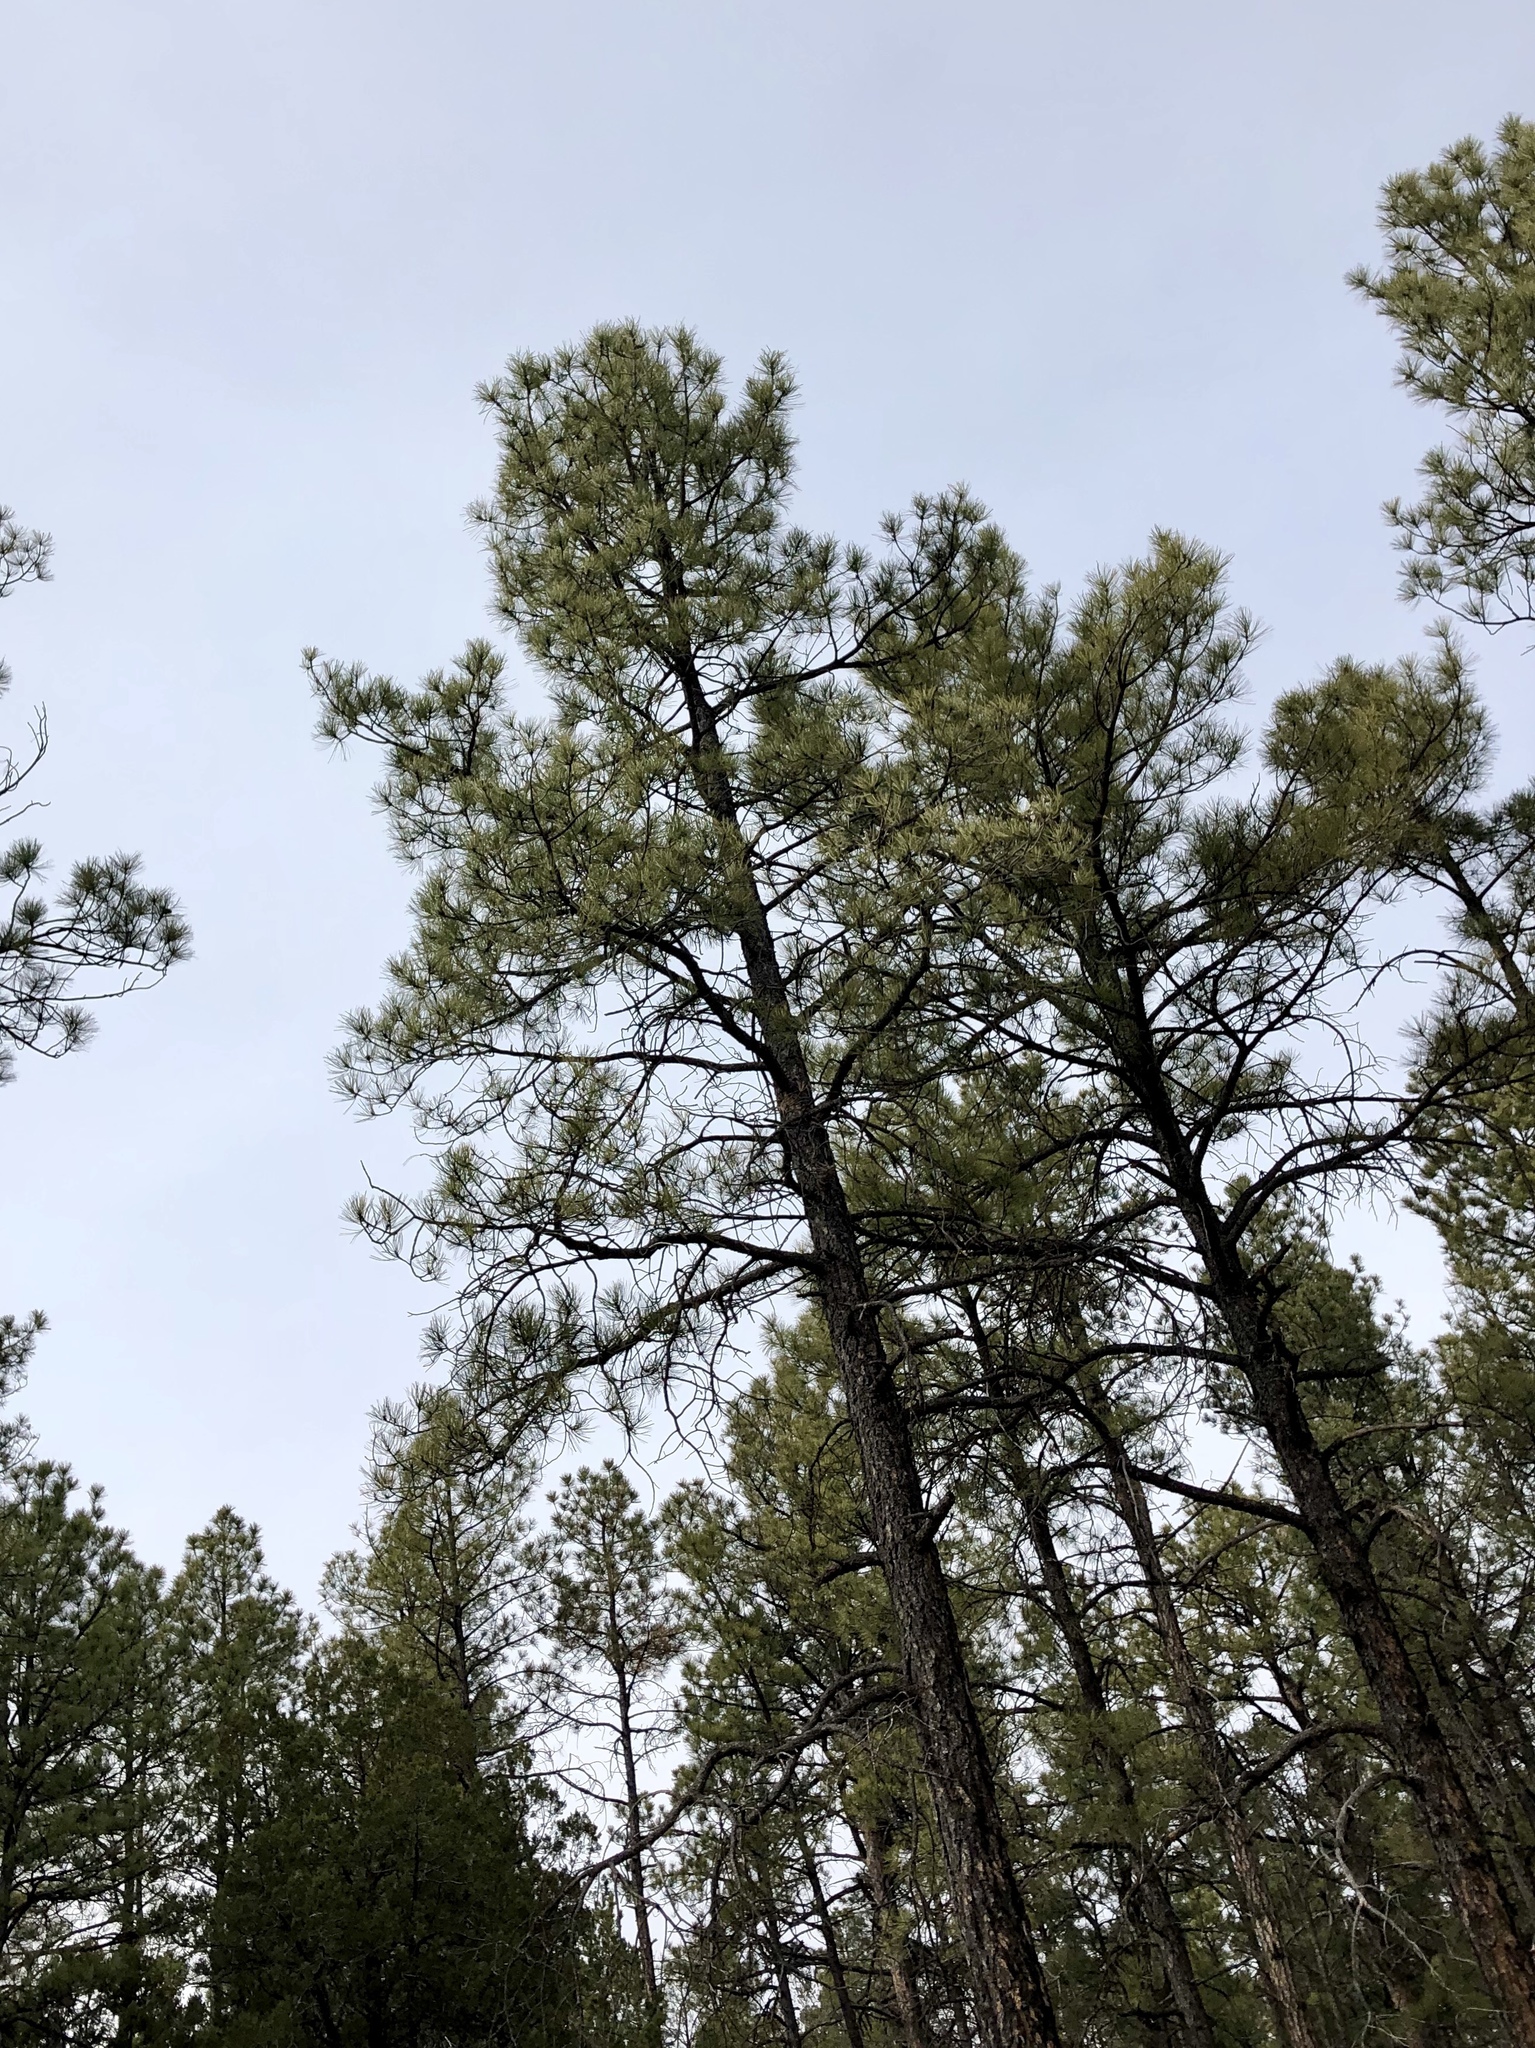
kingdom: Plantae
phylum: Tracheophyta
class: Pinopsida
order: Pinales
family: Pinaceae
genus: Pinus
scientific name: Pinus ponderosa
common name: Western yellow-pine
